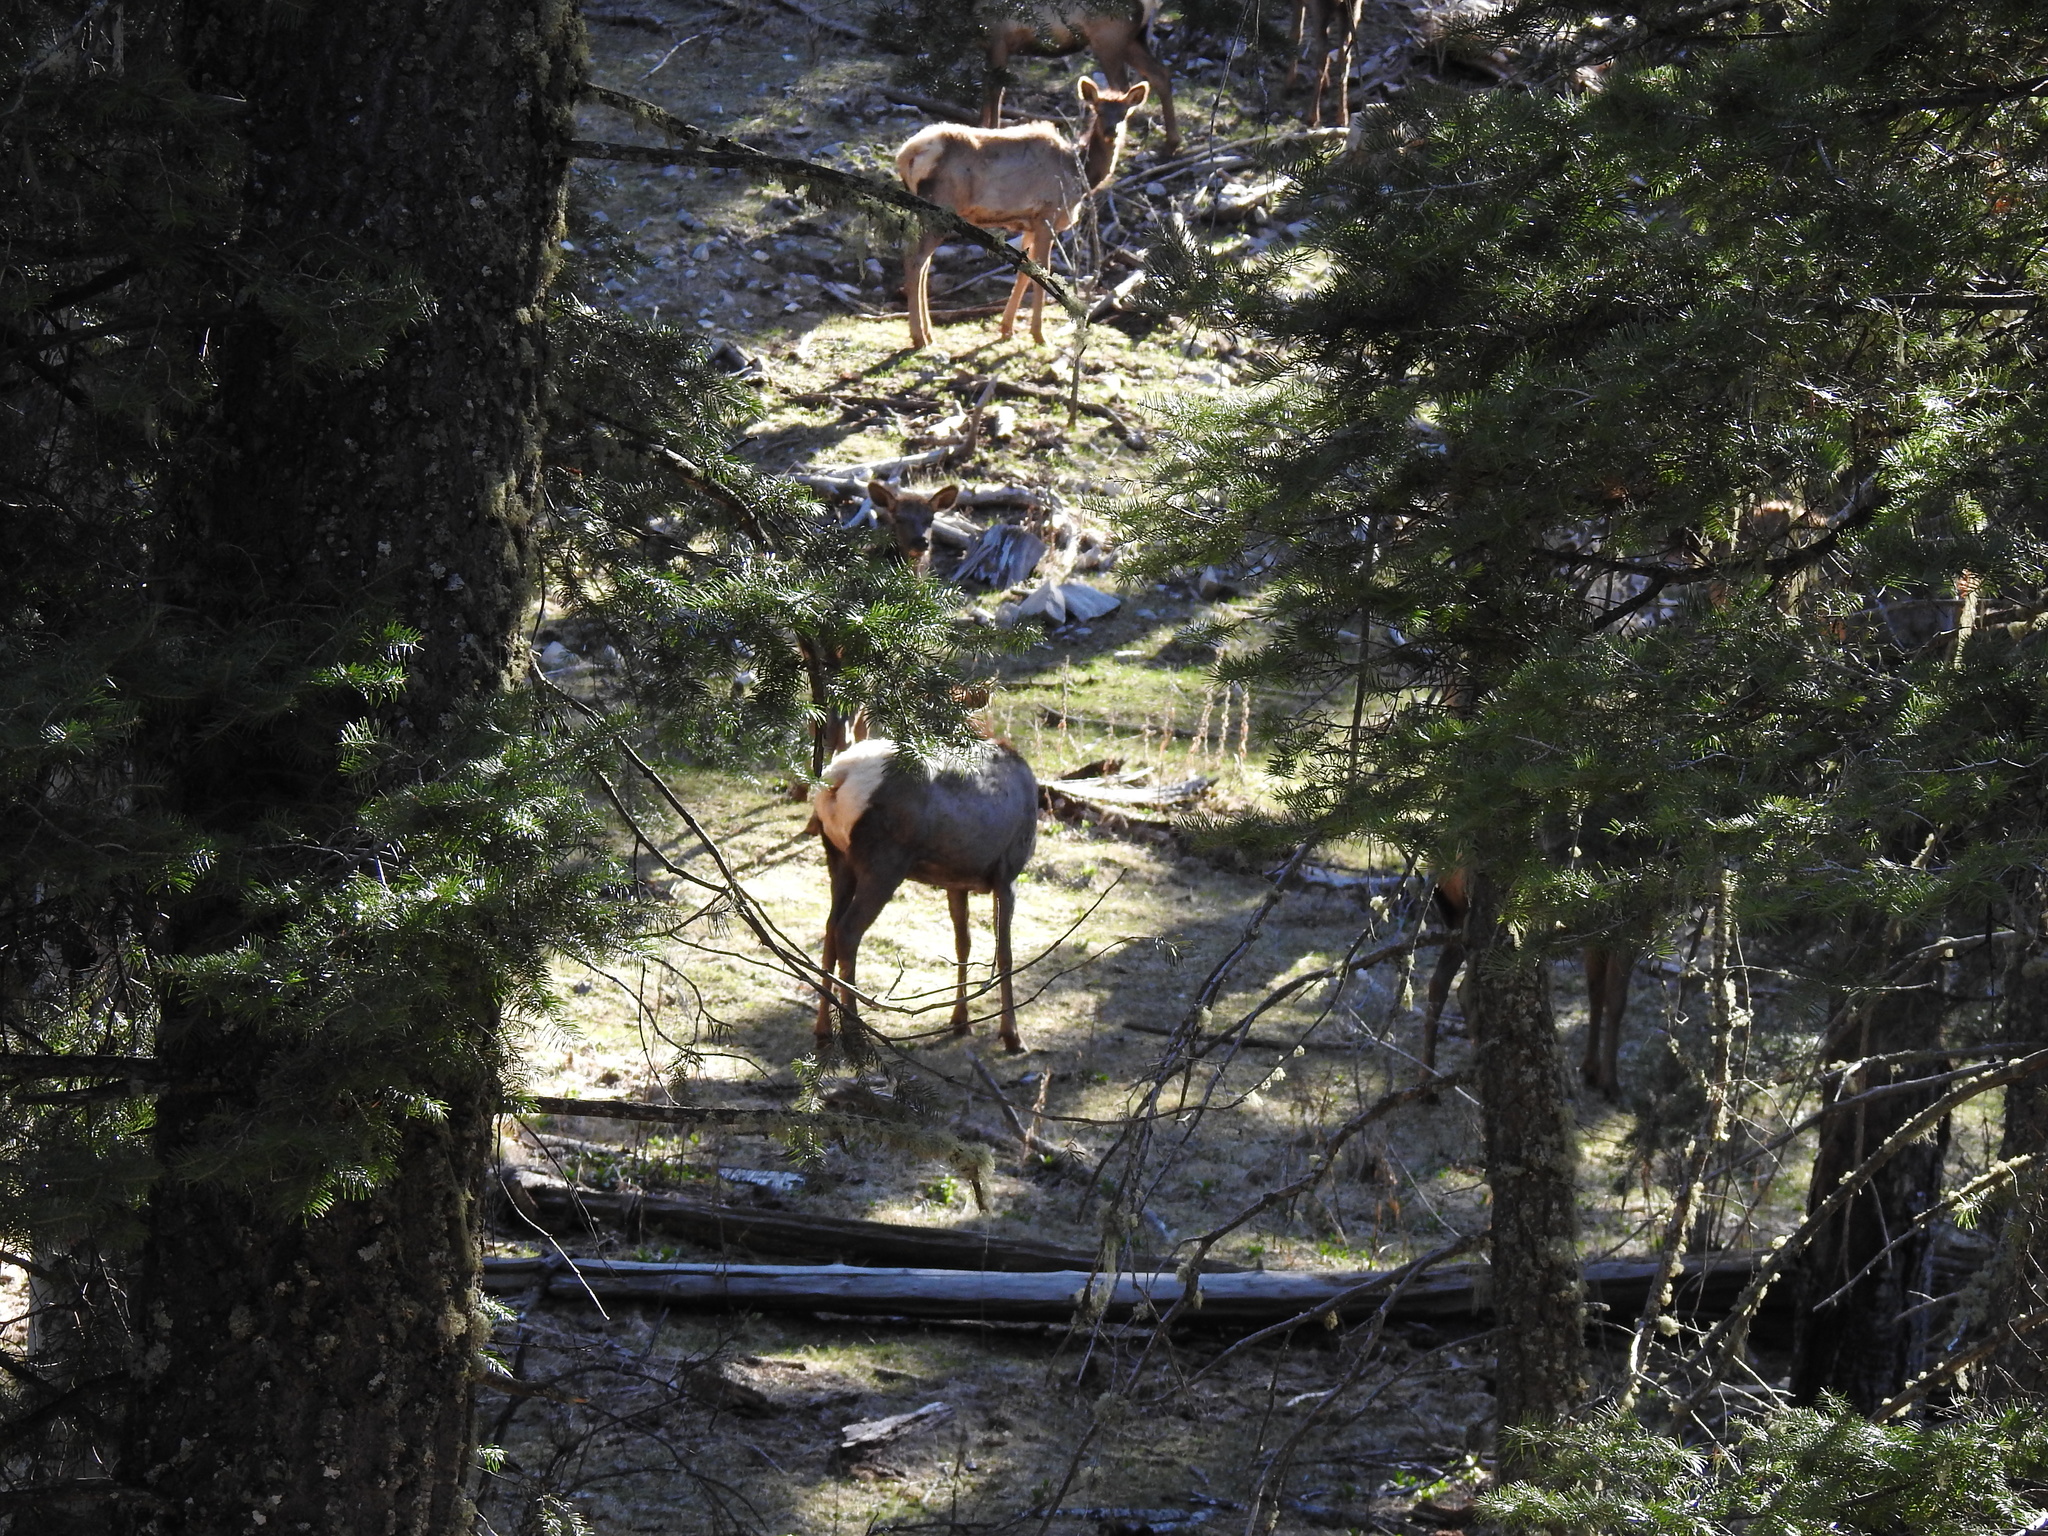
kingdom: Animalia
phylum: Chordata
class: Mammalia
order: Artiodactyla
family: Cervidae
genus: Cervus
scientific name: Cervus elaphus
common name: Red deer
